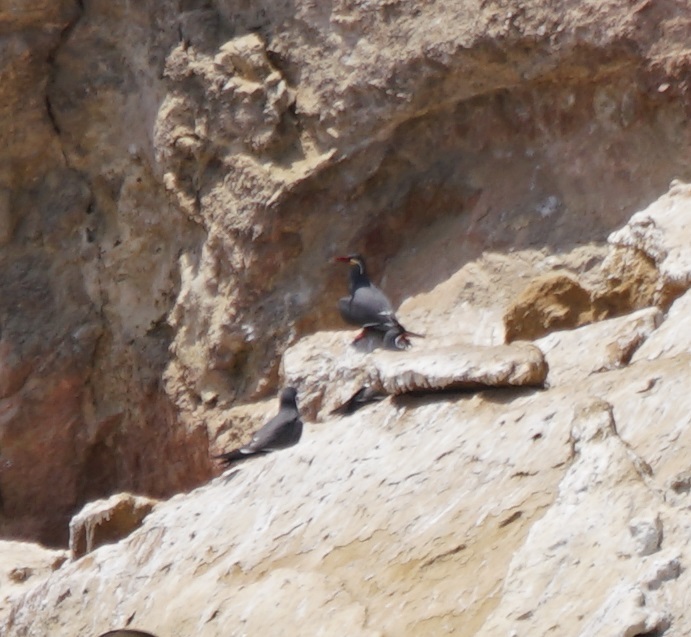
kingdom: Animalia
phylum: Chordata
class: Aves
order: Charadriiformes
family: Laridae
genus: Larosterna
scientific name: Larosterna inca
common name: Inca tern
